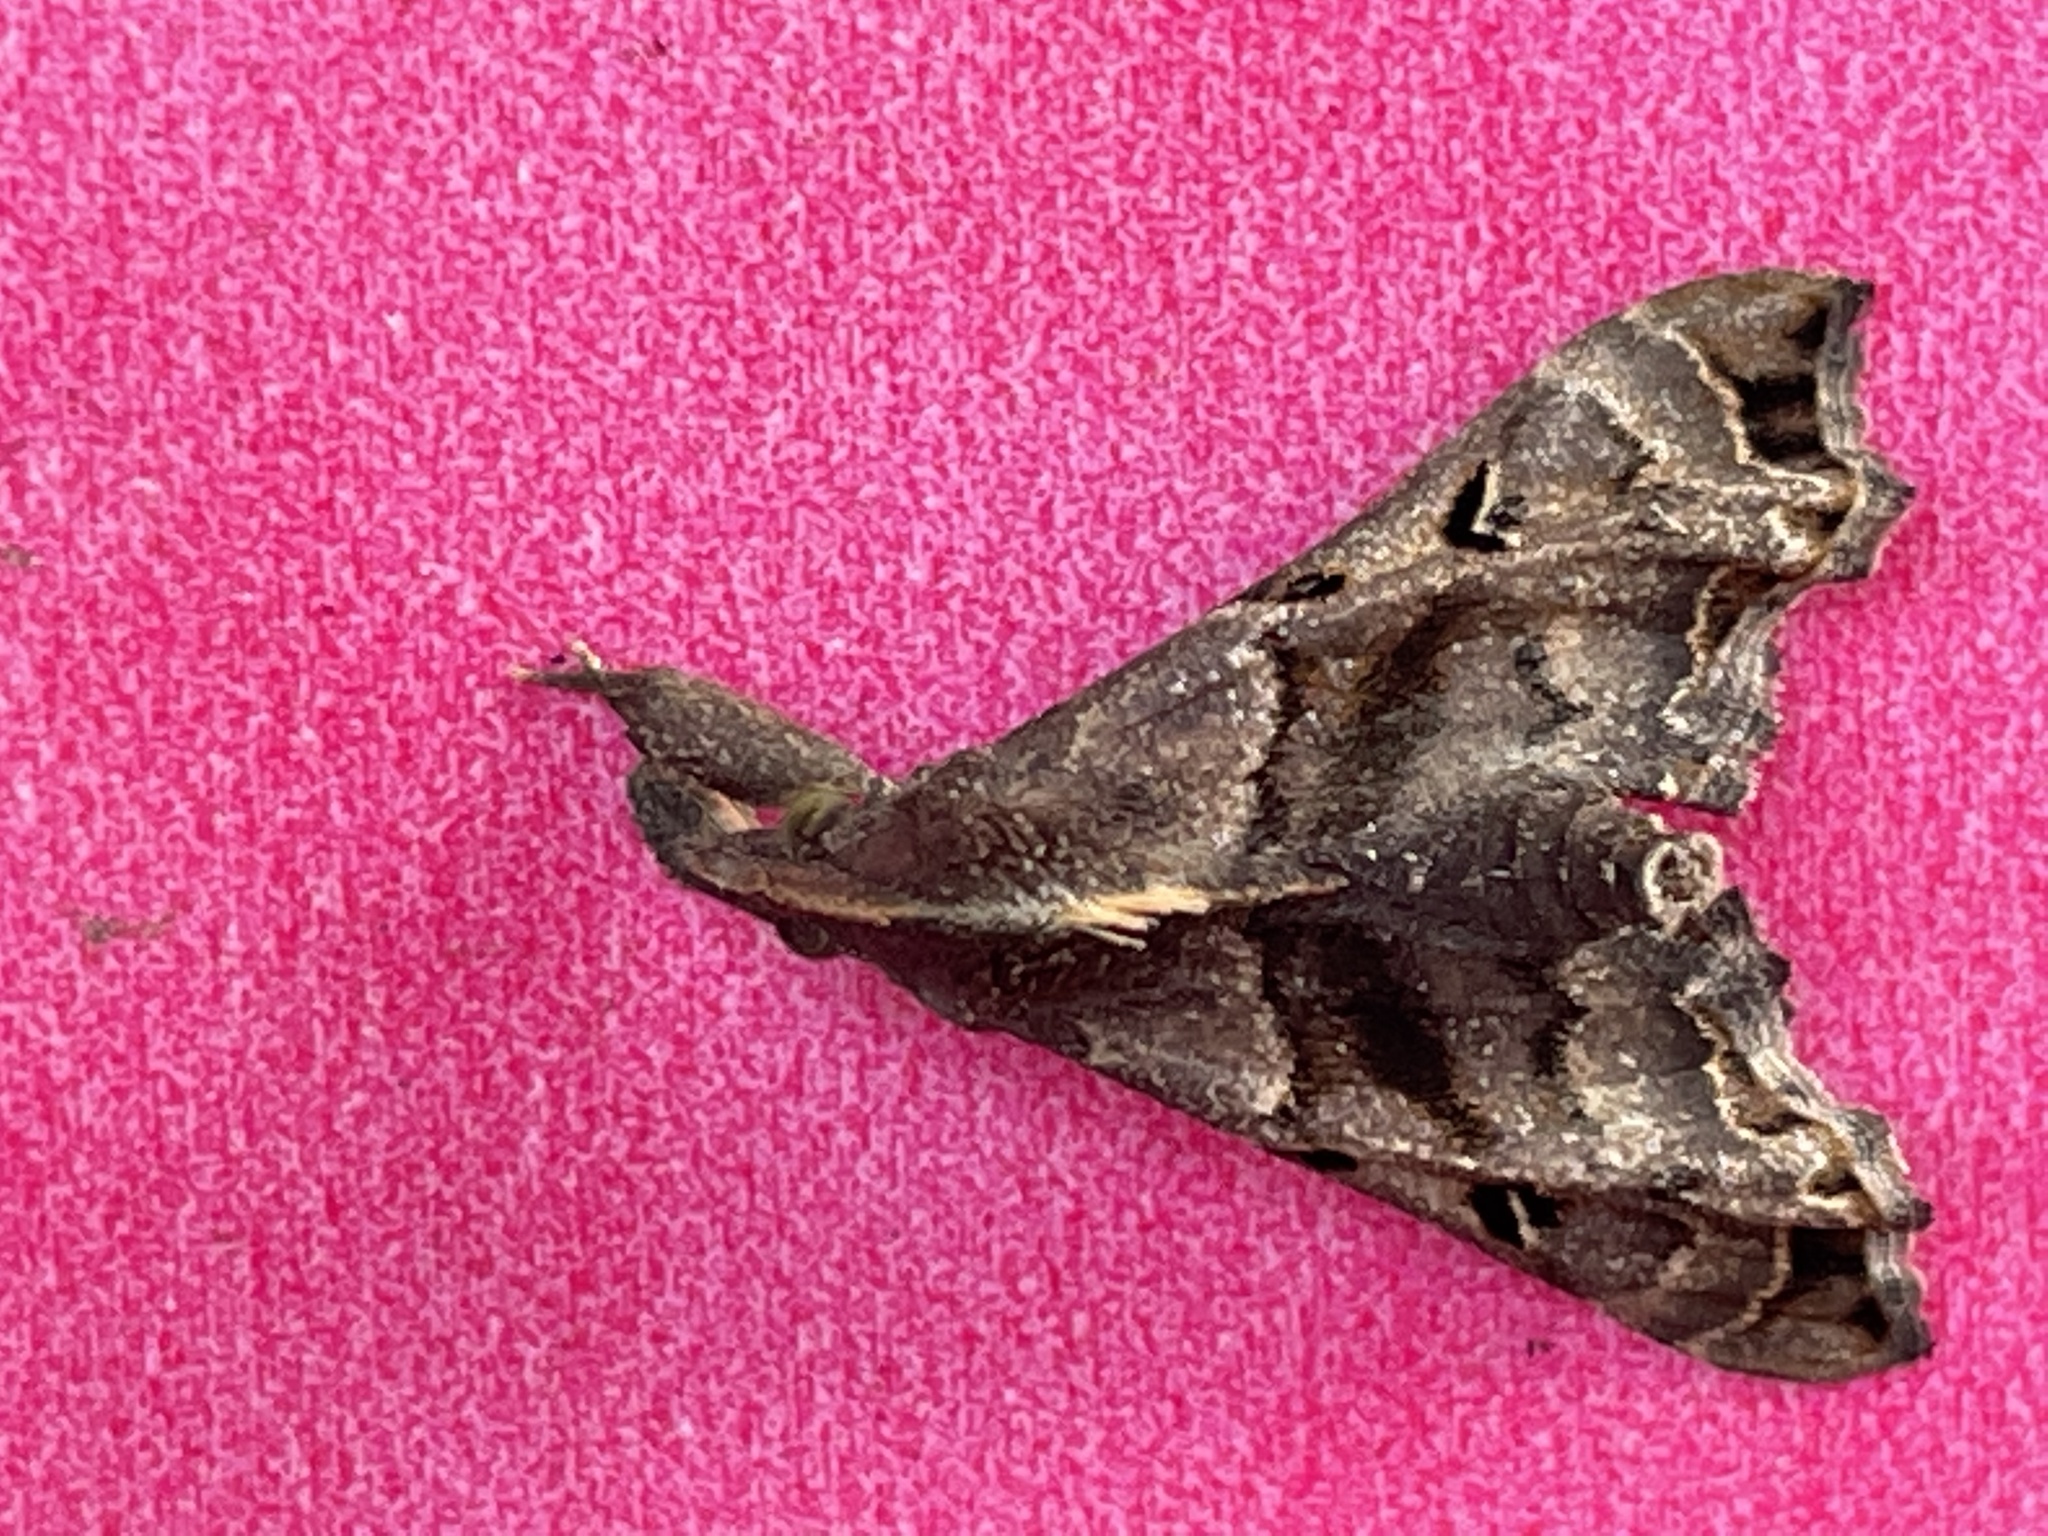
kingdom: Animalia
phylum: Arthropoda
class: Insecta
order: Lepidoptera
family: Erebidae
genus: Palthis
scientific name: Palthis asopialis
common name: Faint-spotted palthis moth
